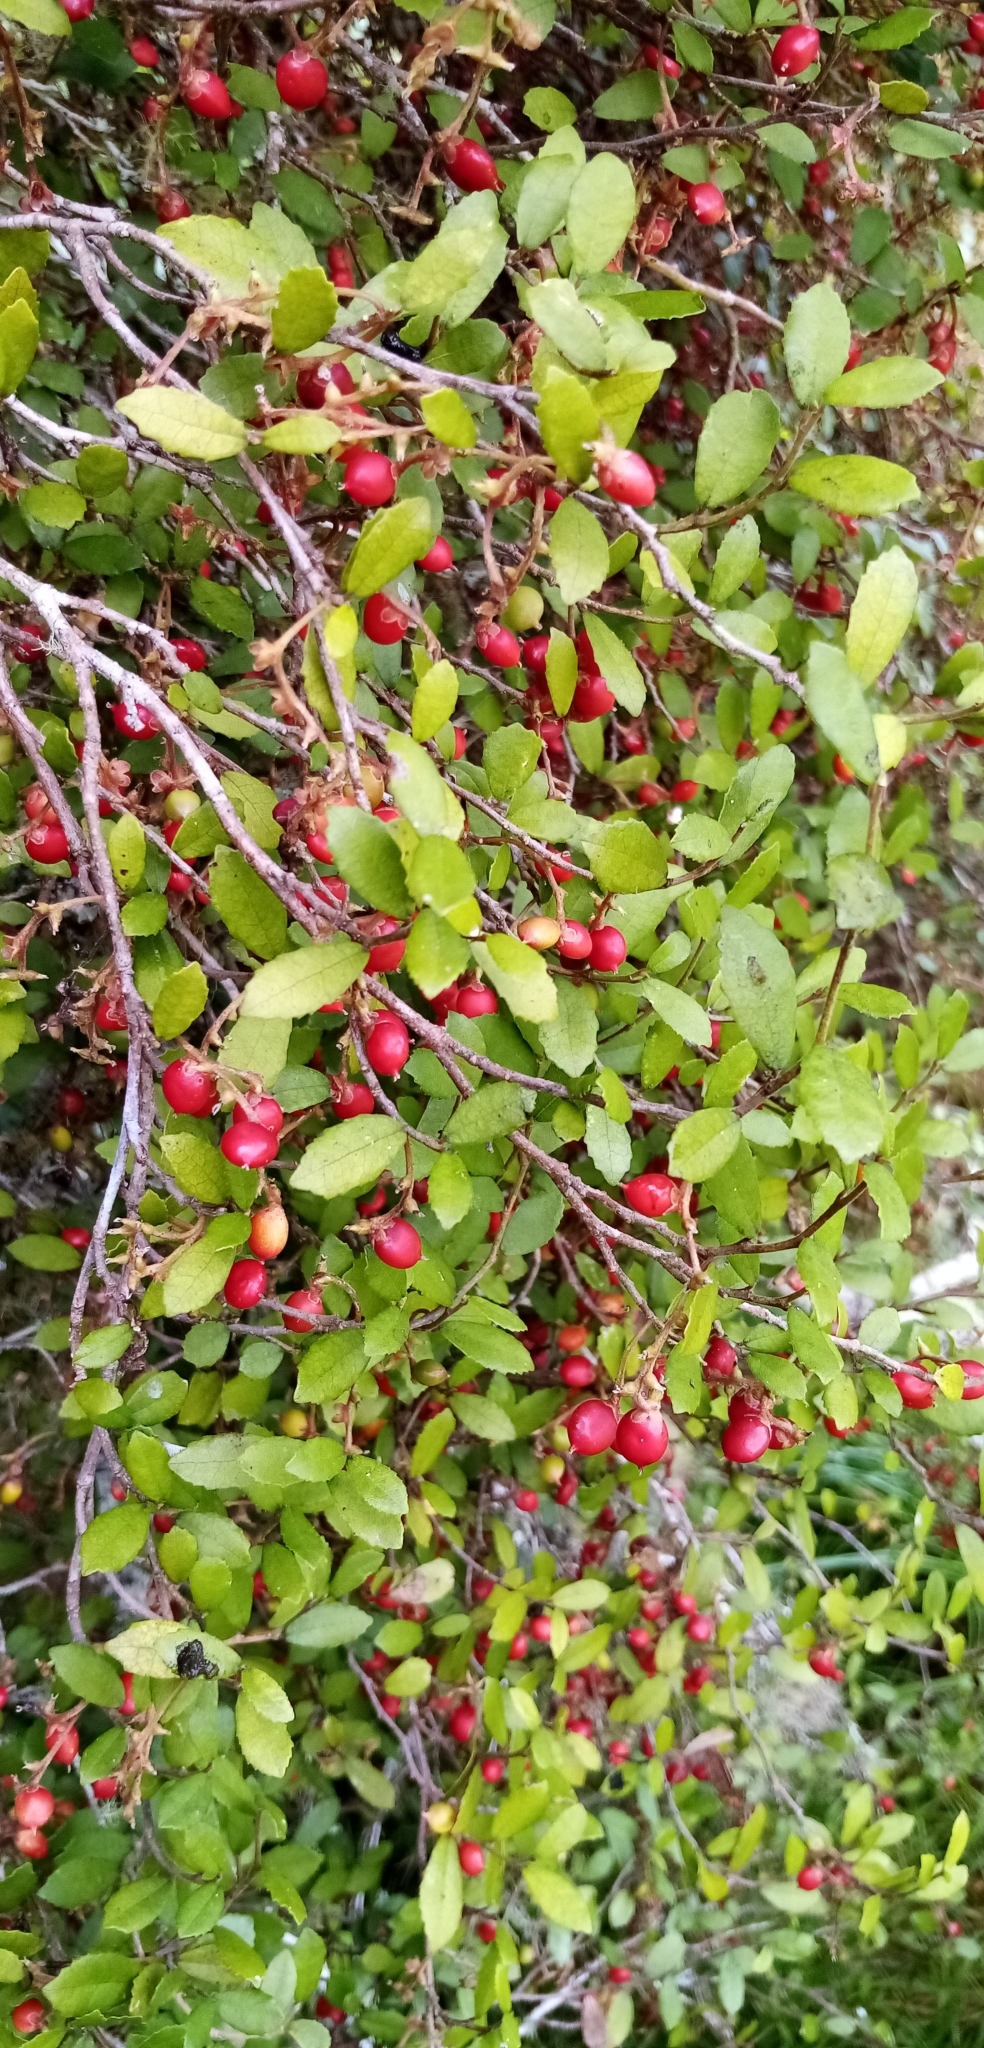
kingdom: Plantae
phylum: Tracheophyta
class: Magnoliopsida
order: Rosales
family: Moraceae
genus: Paratrophis
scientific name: Paratrophis microphylla
